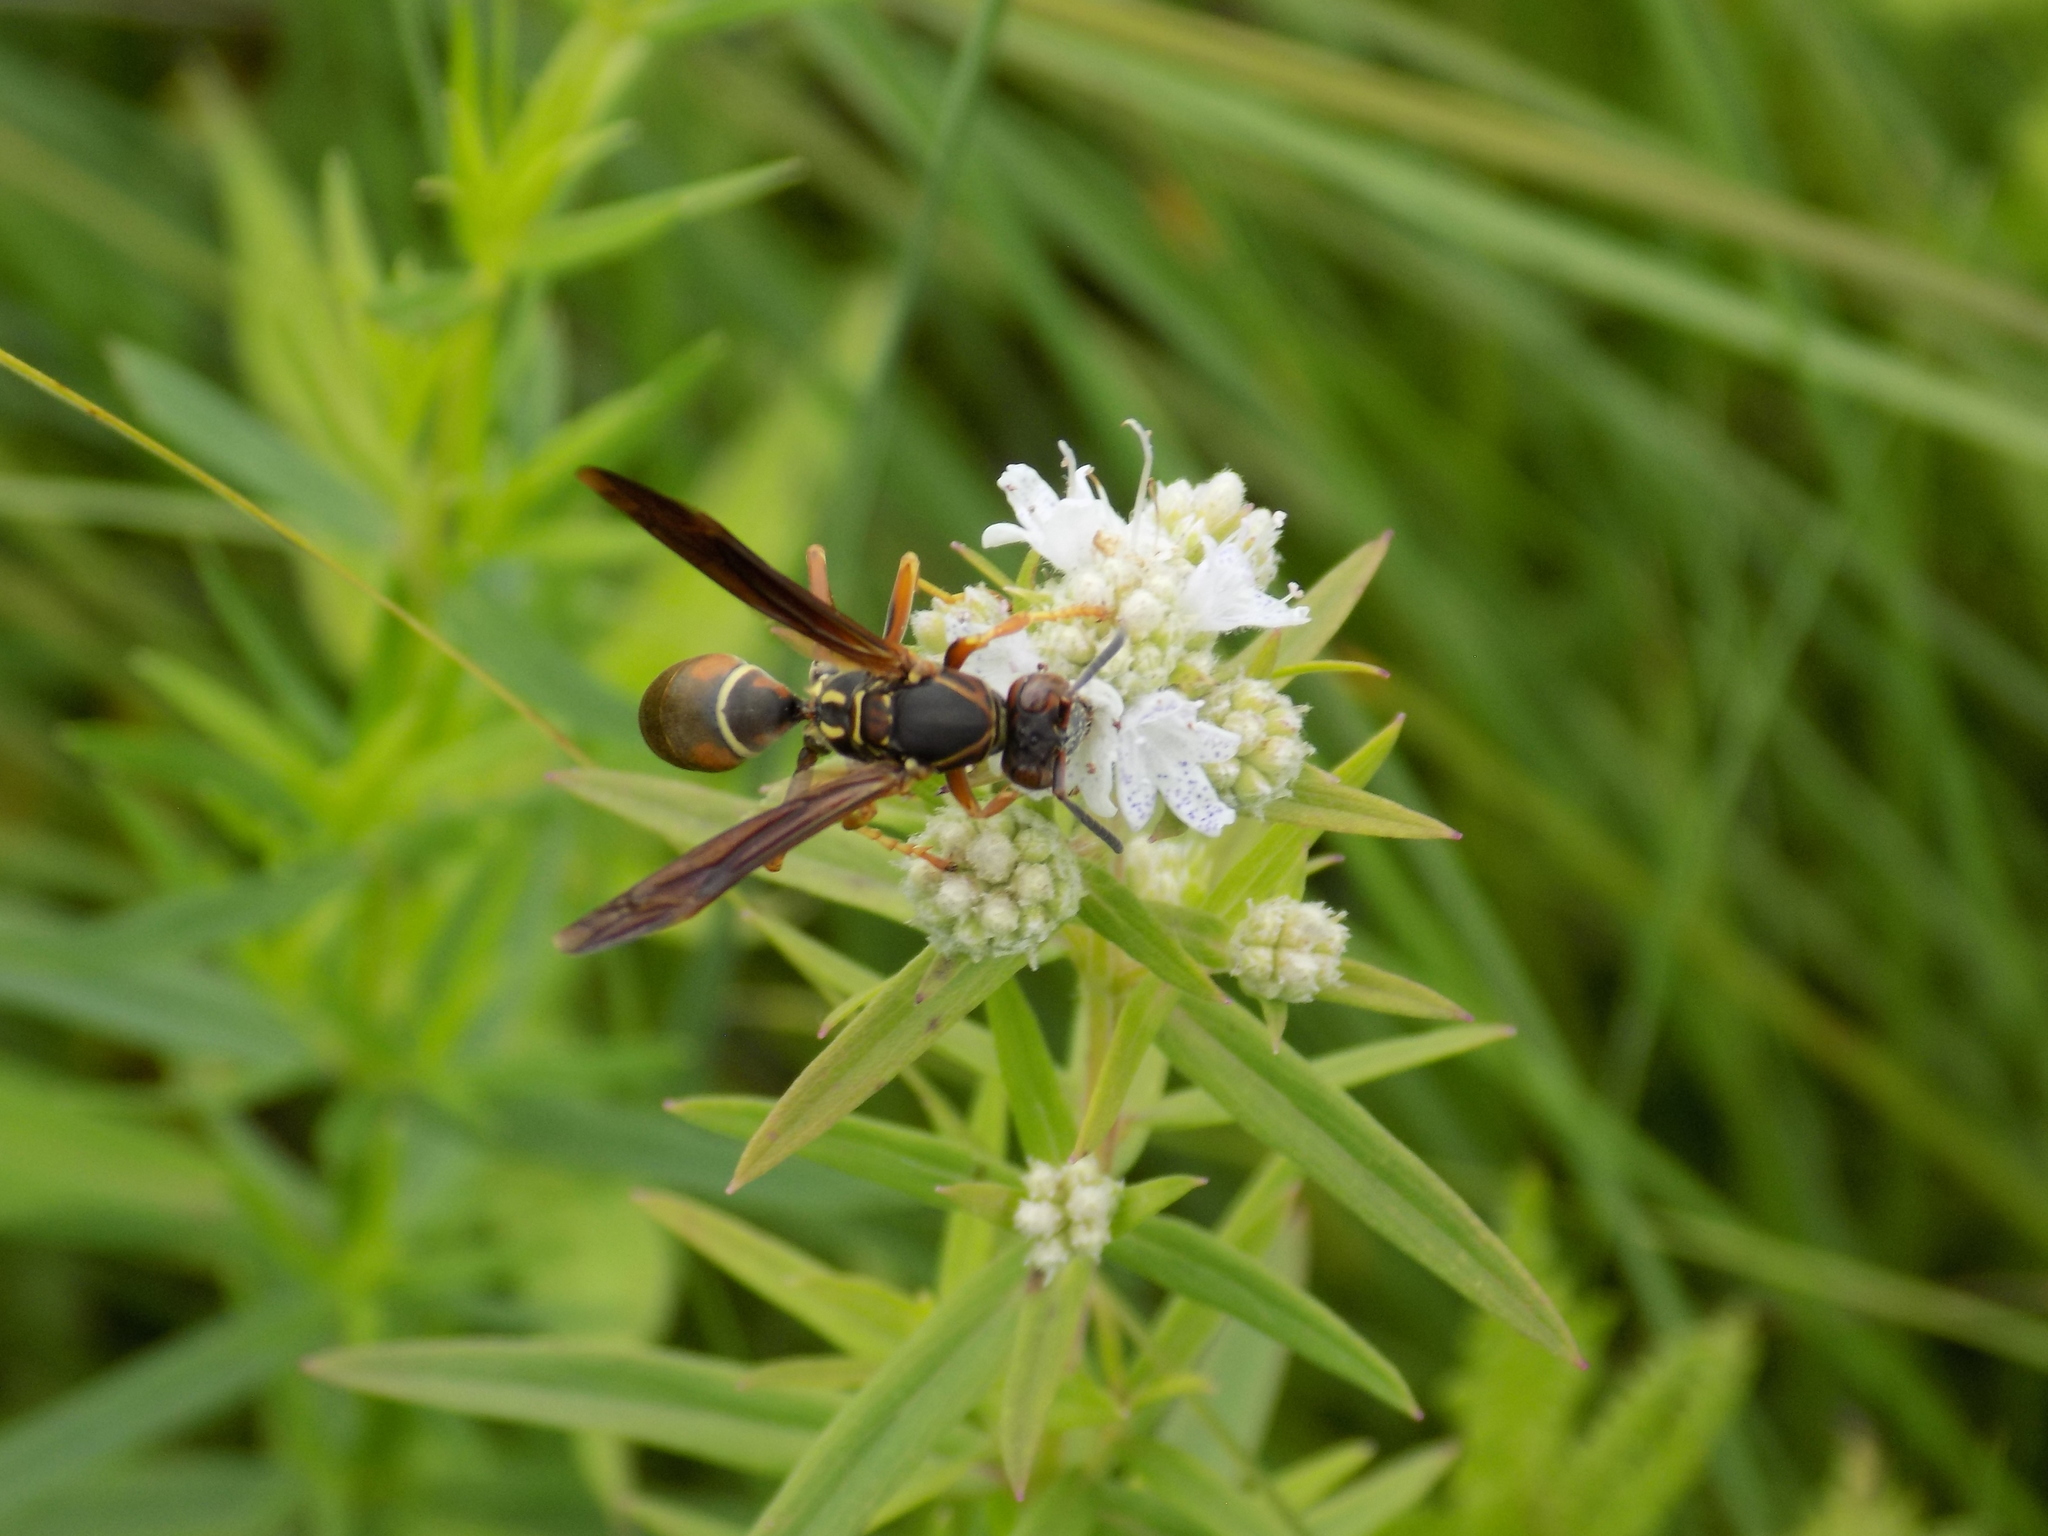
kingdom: Animalia
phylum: Arthropoda
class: Insecta
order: Hymenoptera
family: Eumenidae
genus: Polistes
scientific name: Polistes fuscatus
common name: Dark paper wasp
